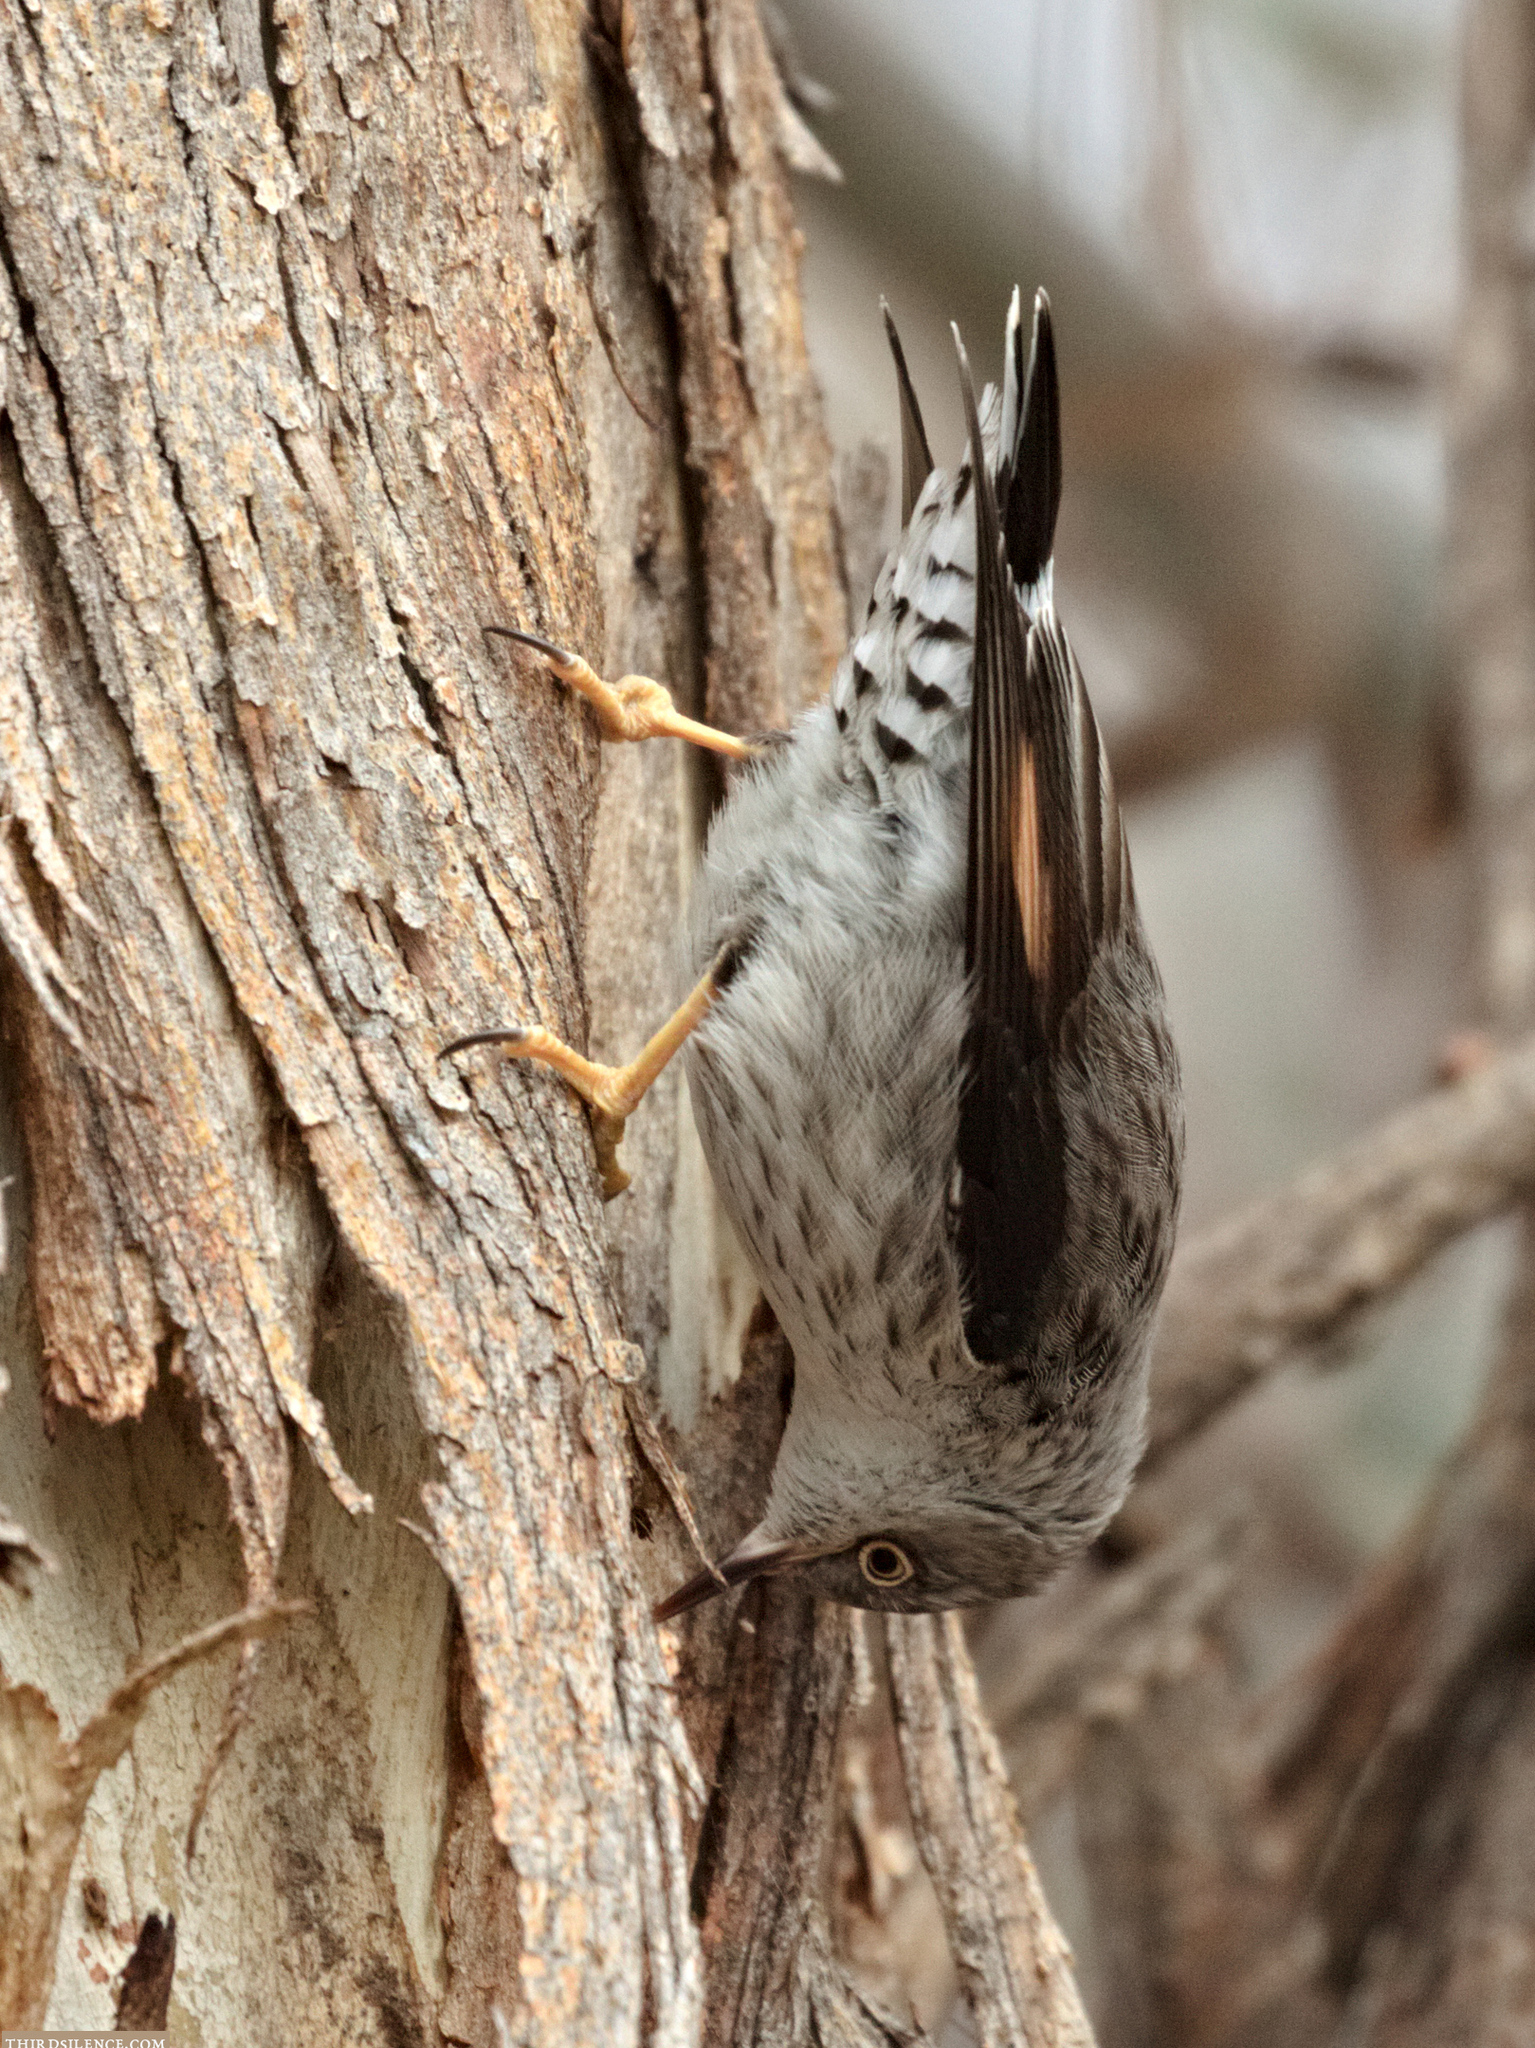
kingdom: Animalia
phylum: Chordata
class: Aves
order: Passeriformes
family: Neosittidae
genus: Daphoenositta
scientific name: Daphoenositta chrysoptera
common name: Varied sittella
